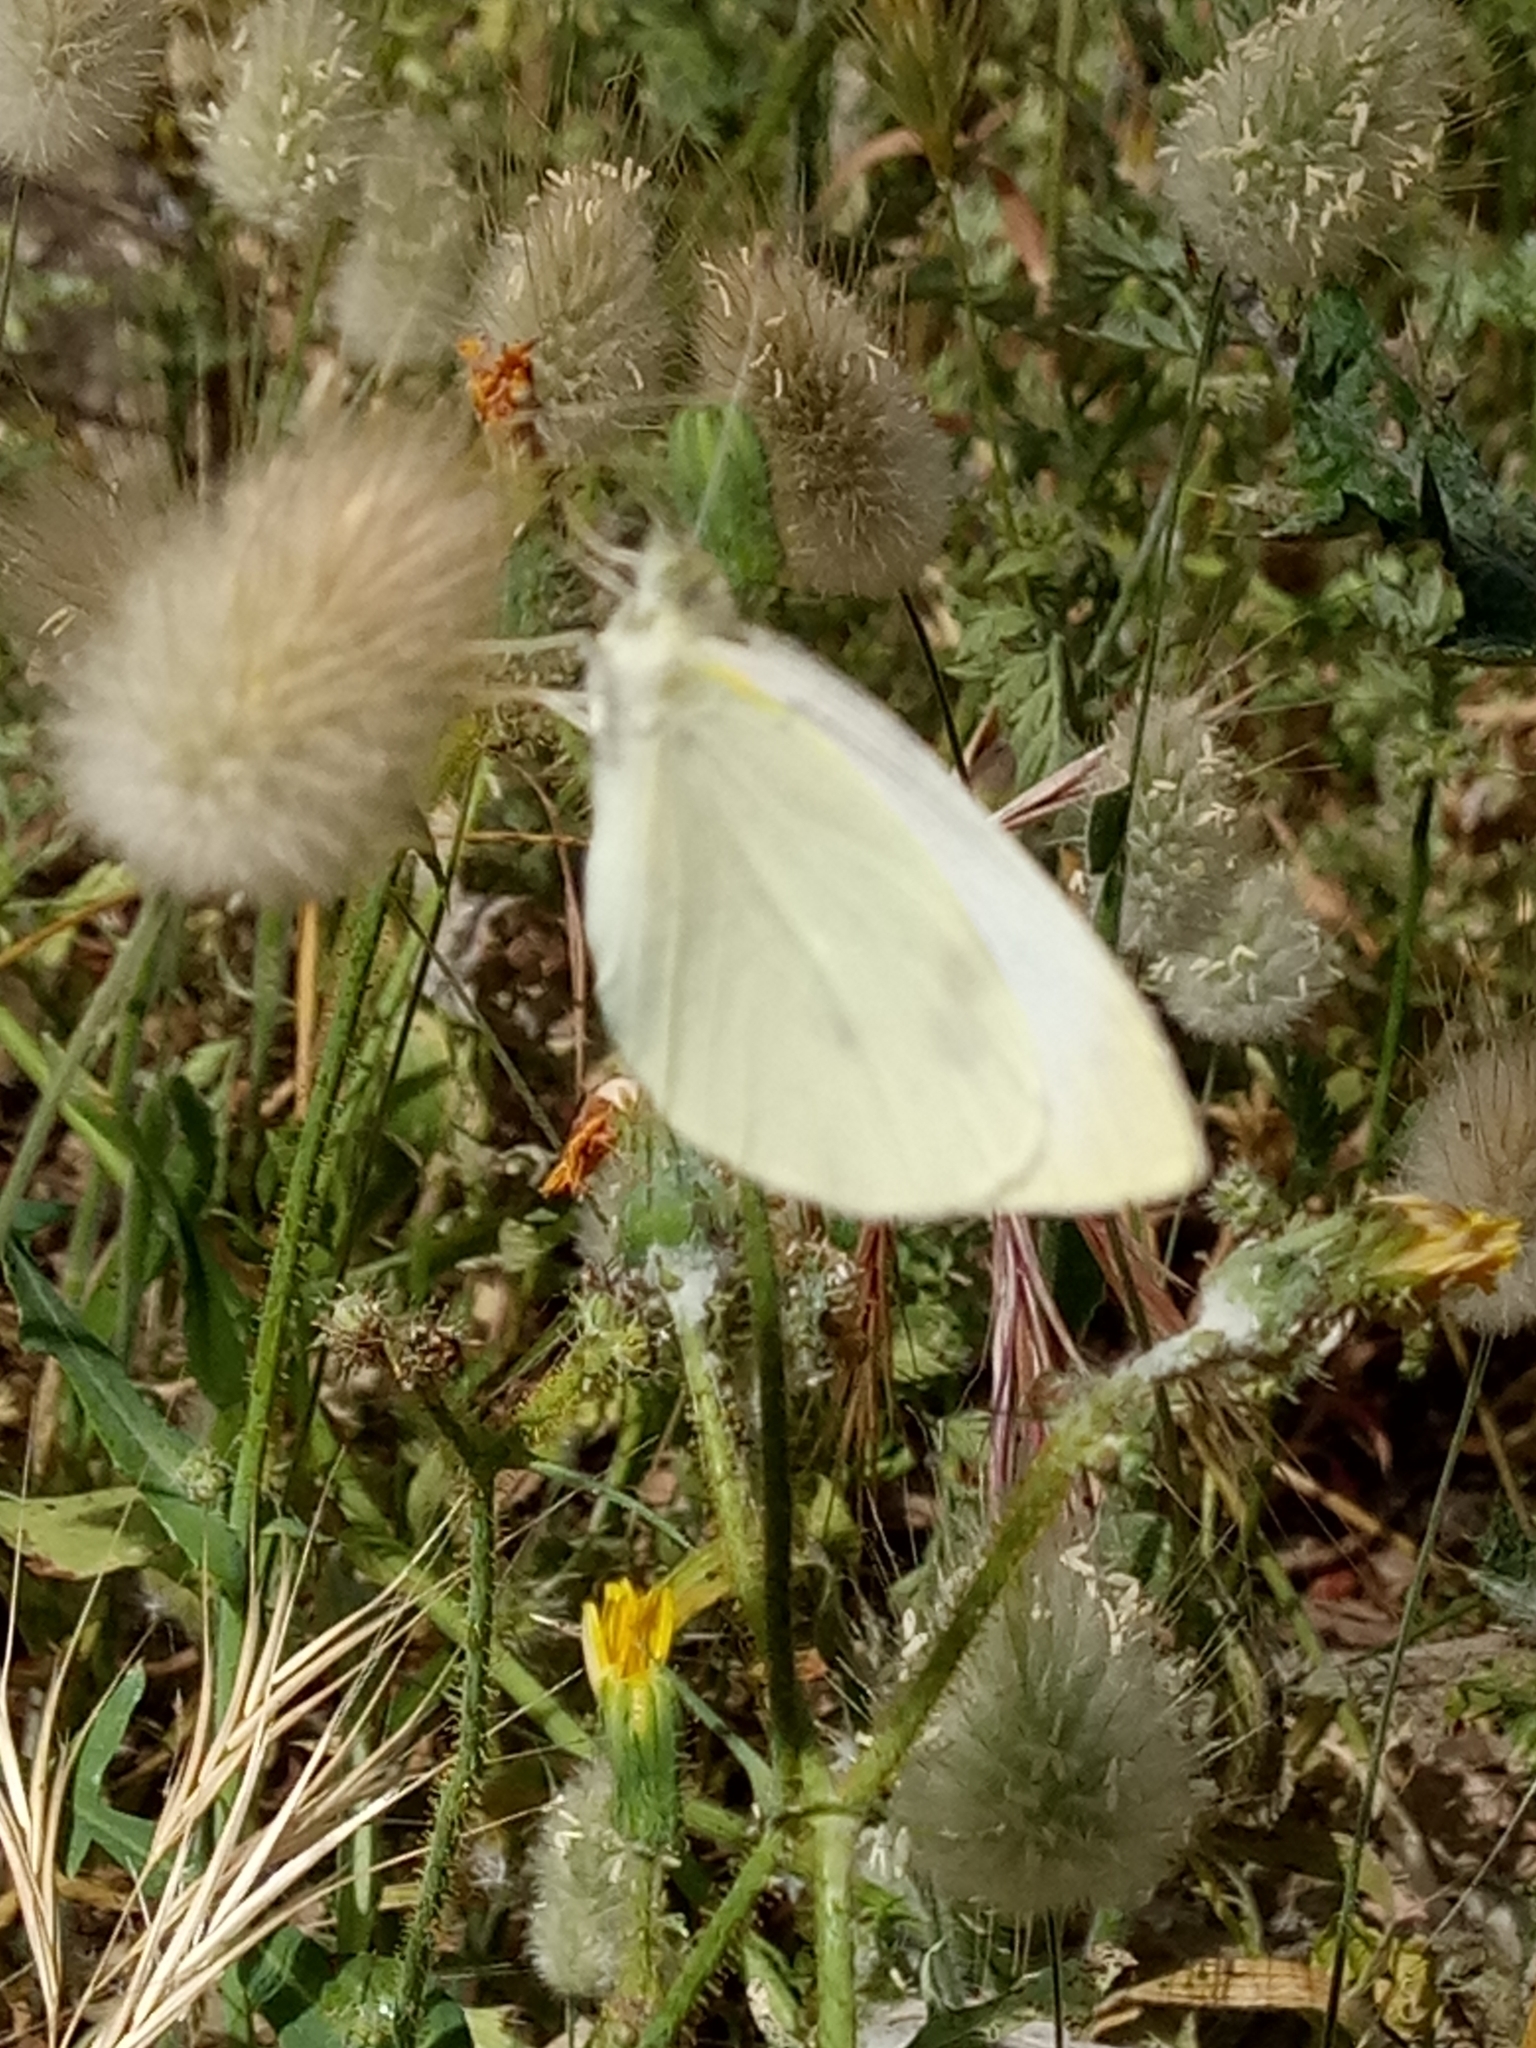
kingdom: Animalia
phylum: Arthropoda
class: Insecta
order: Lepidoptera
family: Pieridae
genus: Pieris
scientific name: Pieris rapae
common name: Small white
